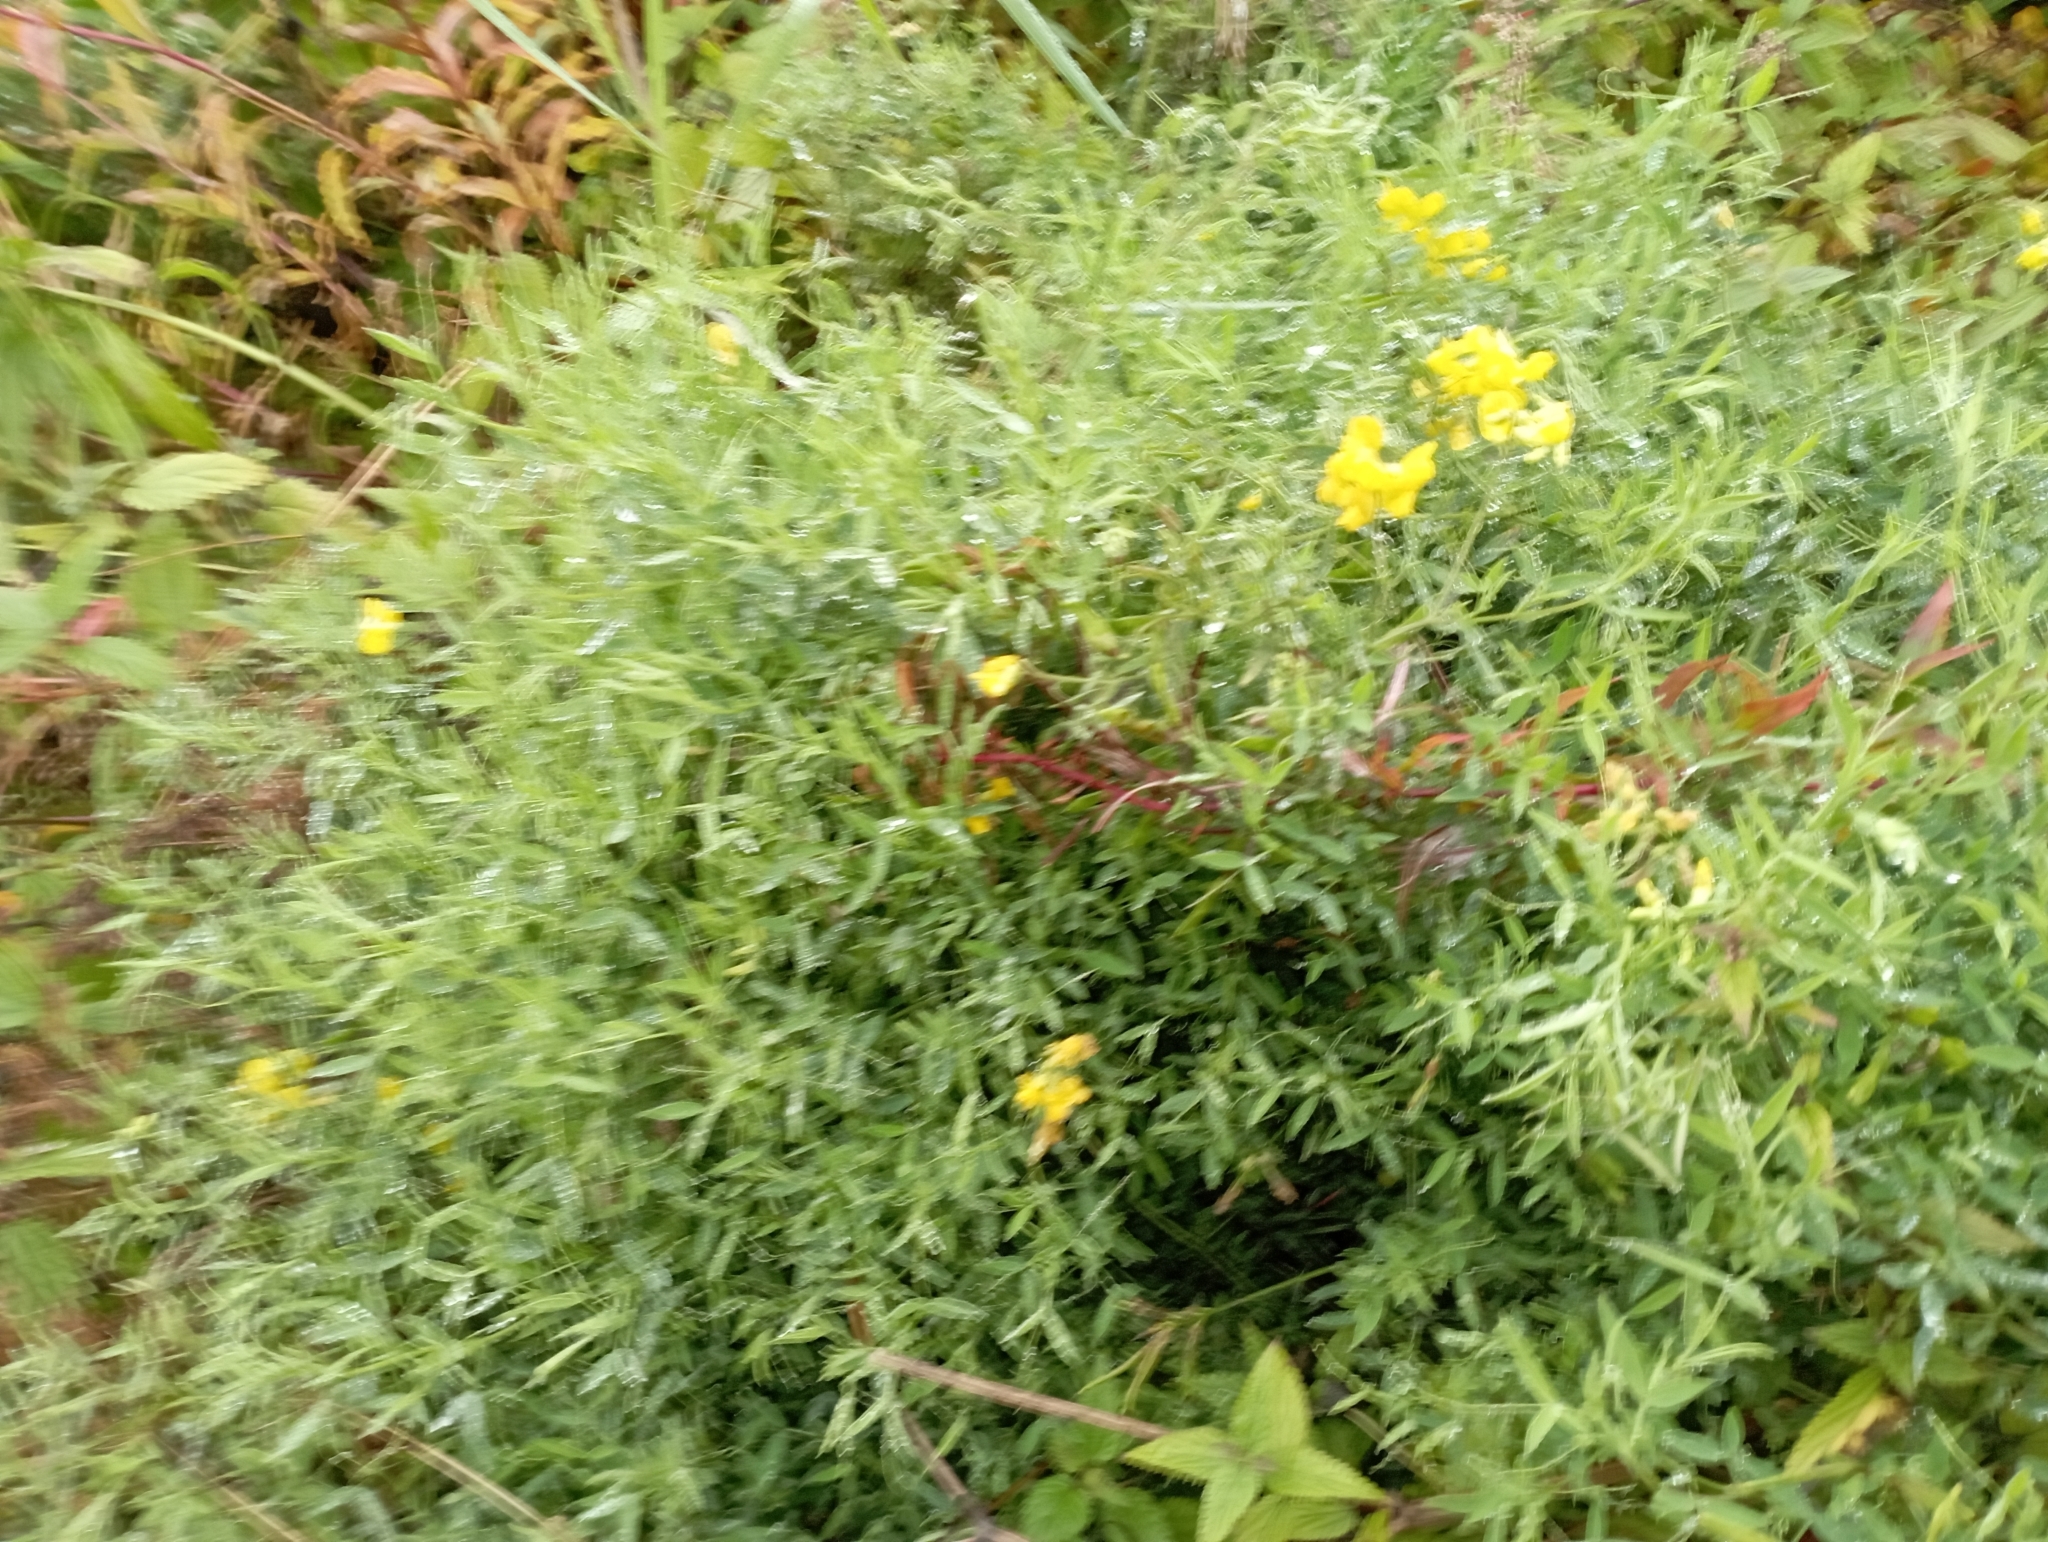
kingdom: Plantae
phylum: Tracheophyta
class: Magnoliopsida
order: Fabales
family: Fabaceae
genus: Lathyrus
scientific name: Lathyrus pratensis
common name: Meadow vetchling
